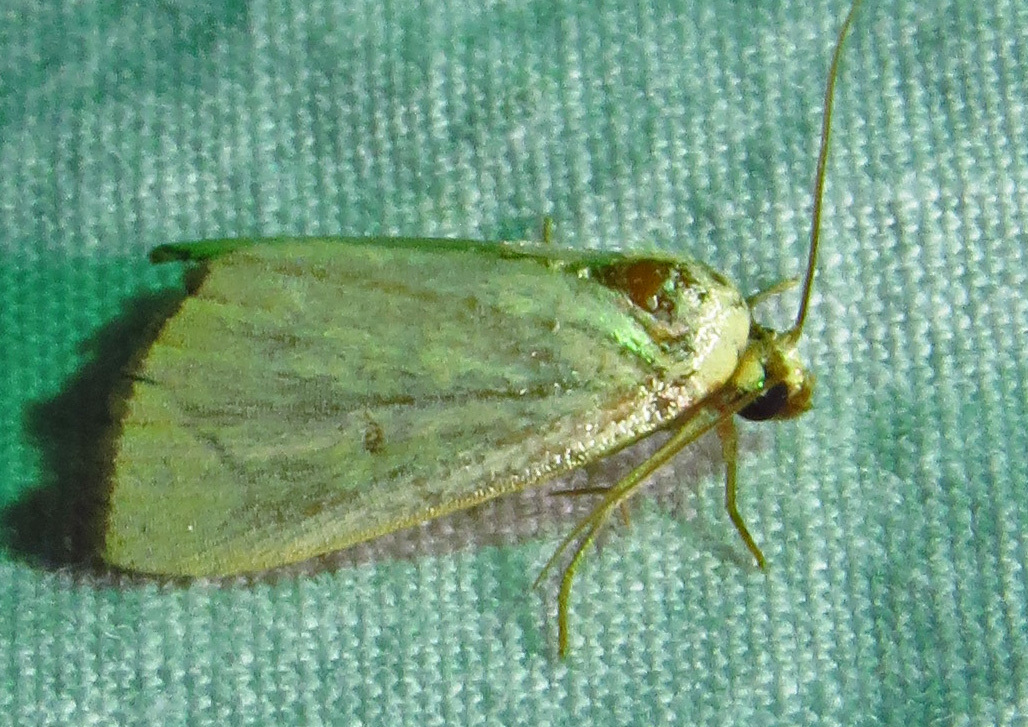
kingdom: Animalia
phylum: Arthropoda
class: Insecta
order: Lepidoptera
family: Noctuidae
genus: Marimatha
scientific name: Marimatha nigrofimbria
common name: Black-bordered lemon moth
